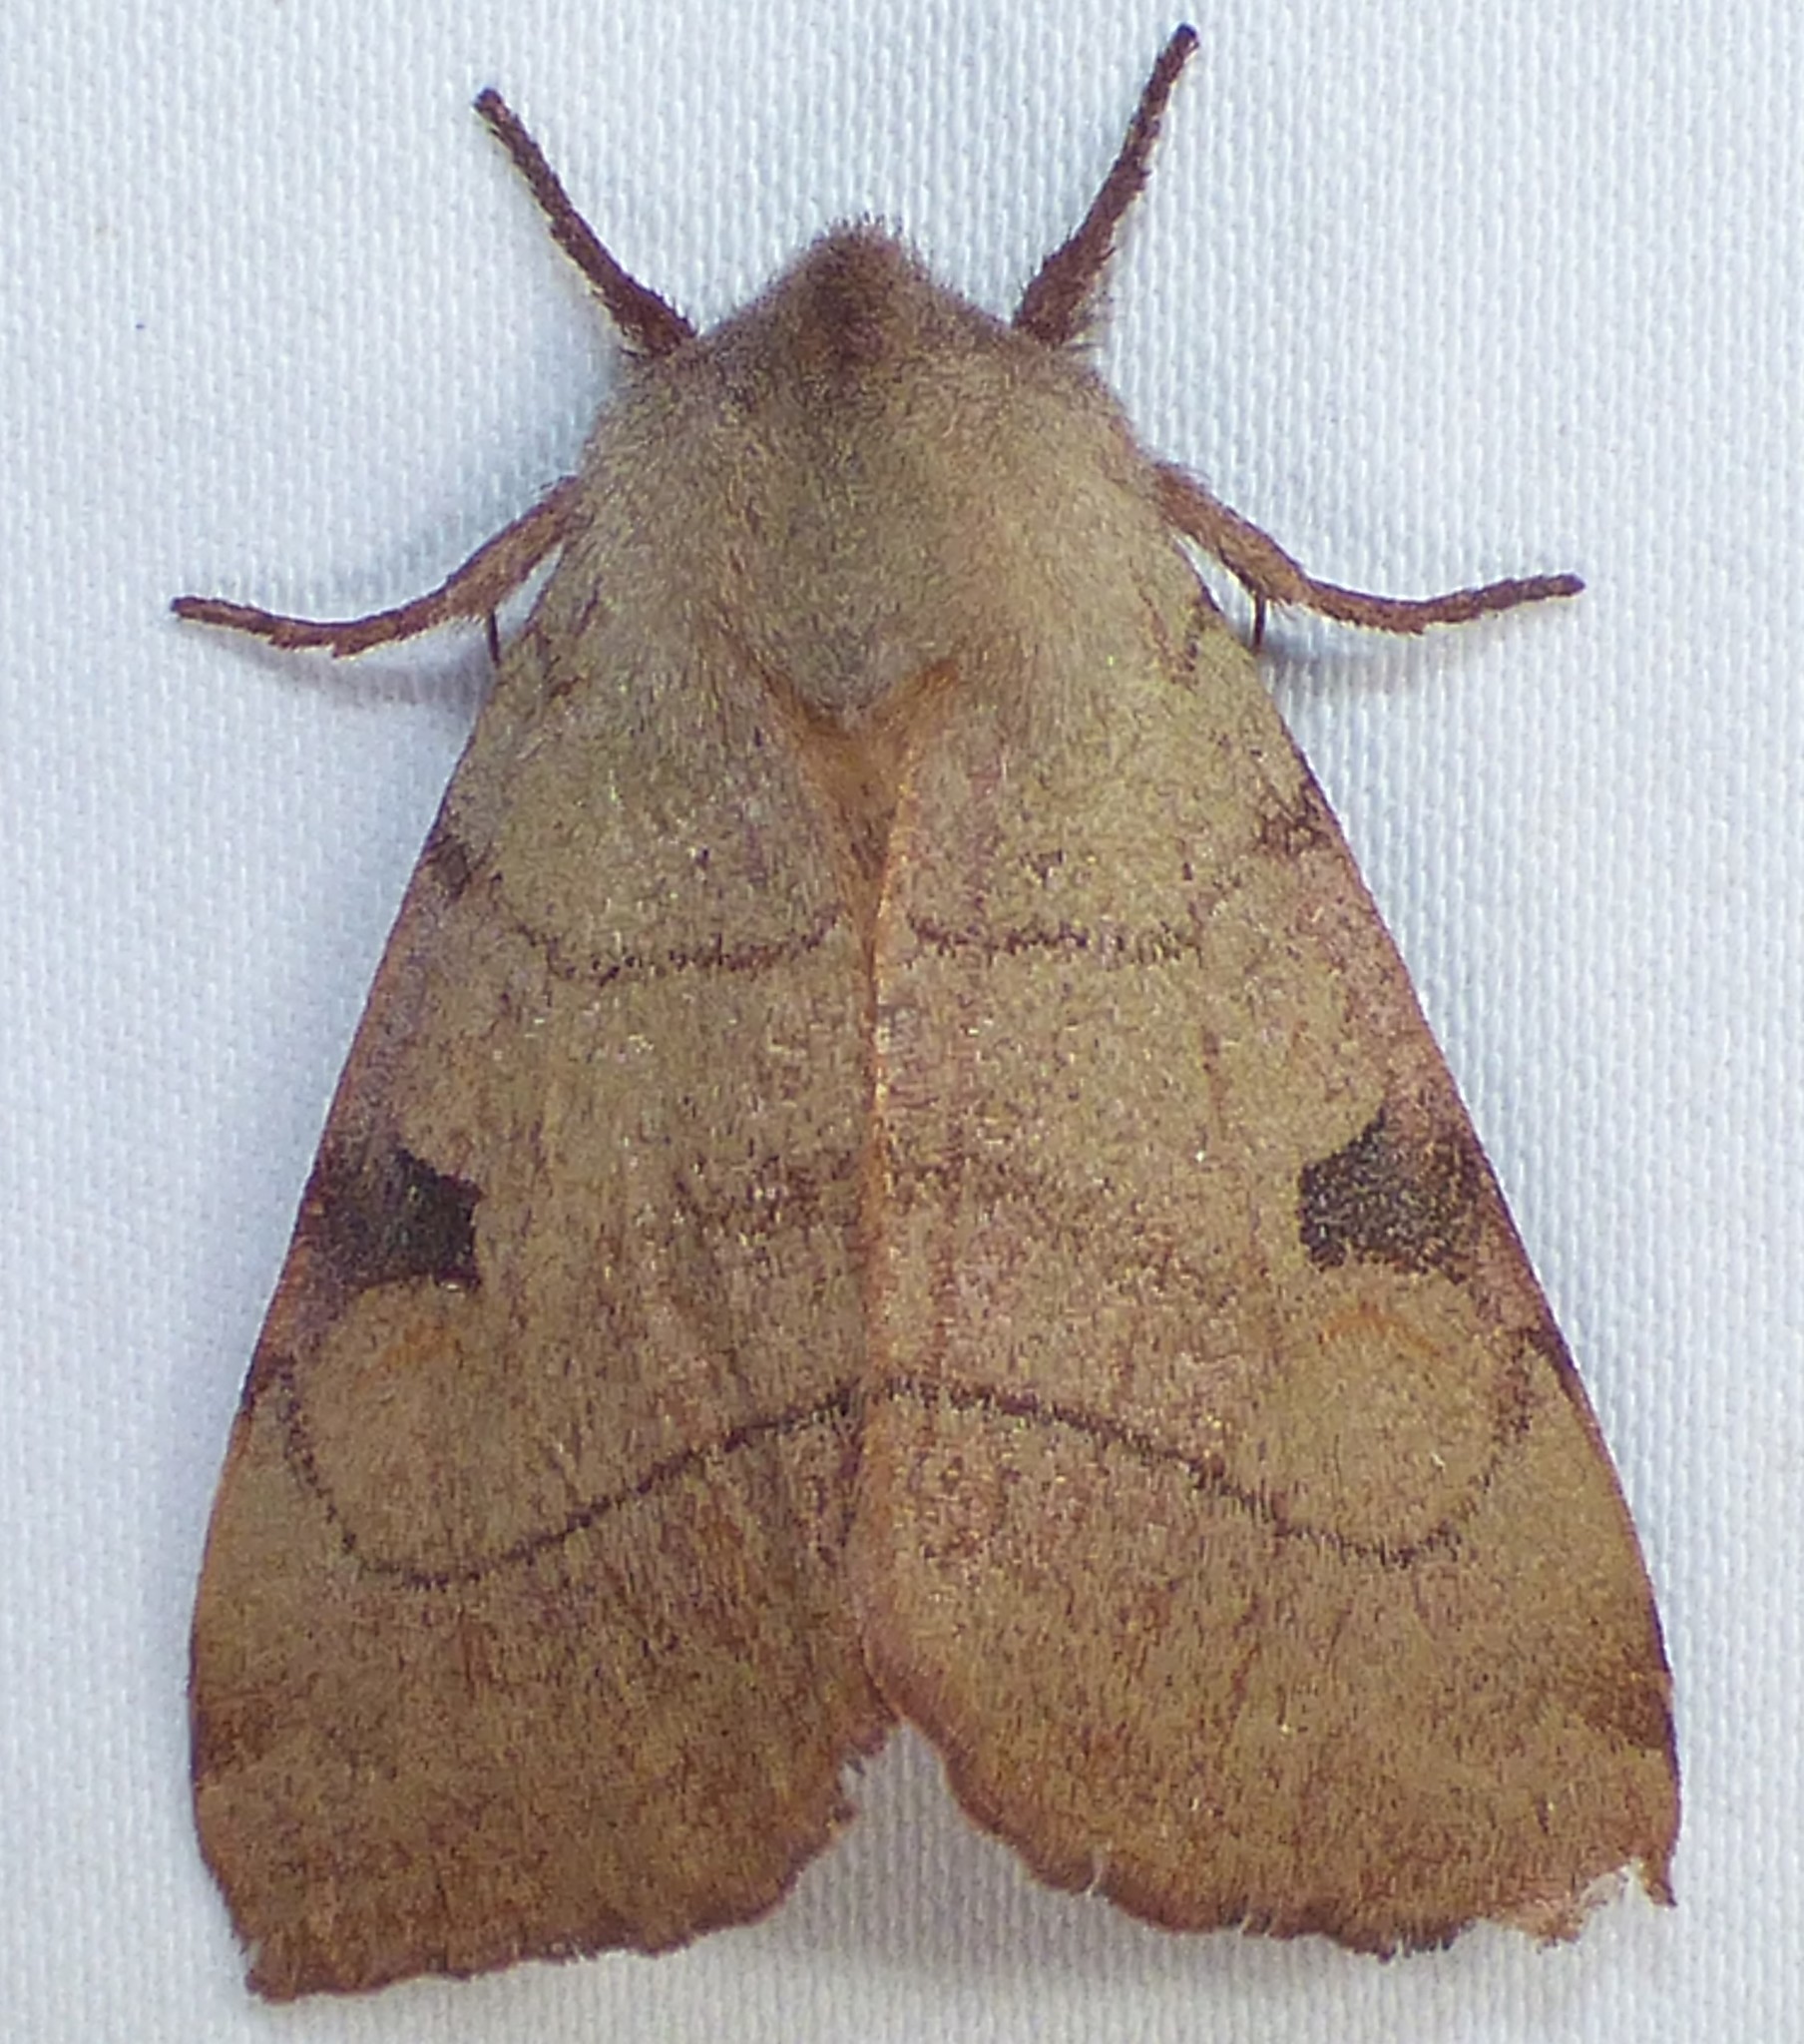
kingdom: Animalia
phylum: Arthropoda
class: Insecta
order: Lepidoptera
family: Noctuidae
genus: Choephora
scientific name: Choephora fungorum
